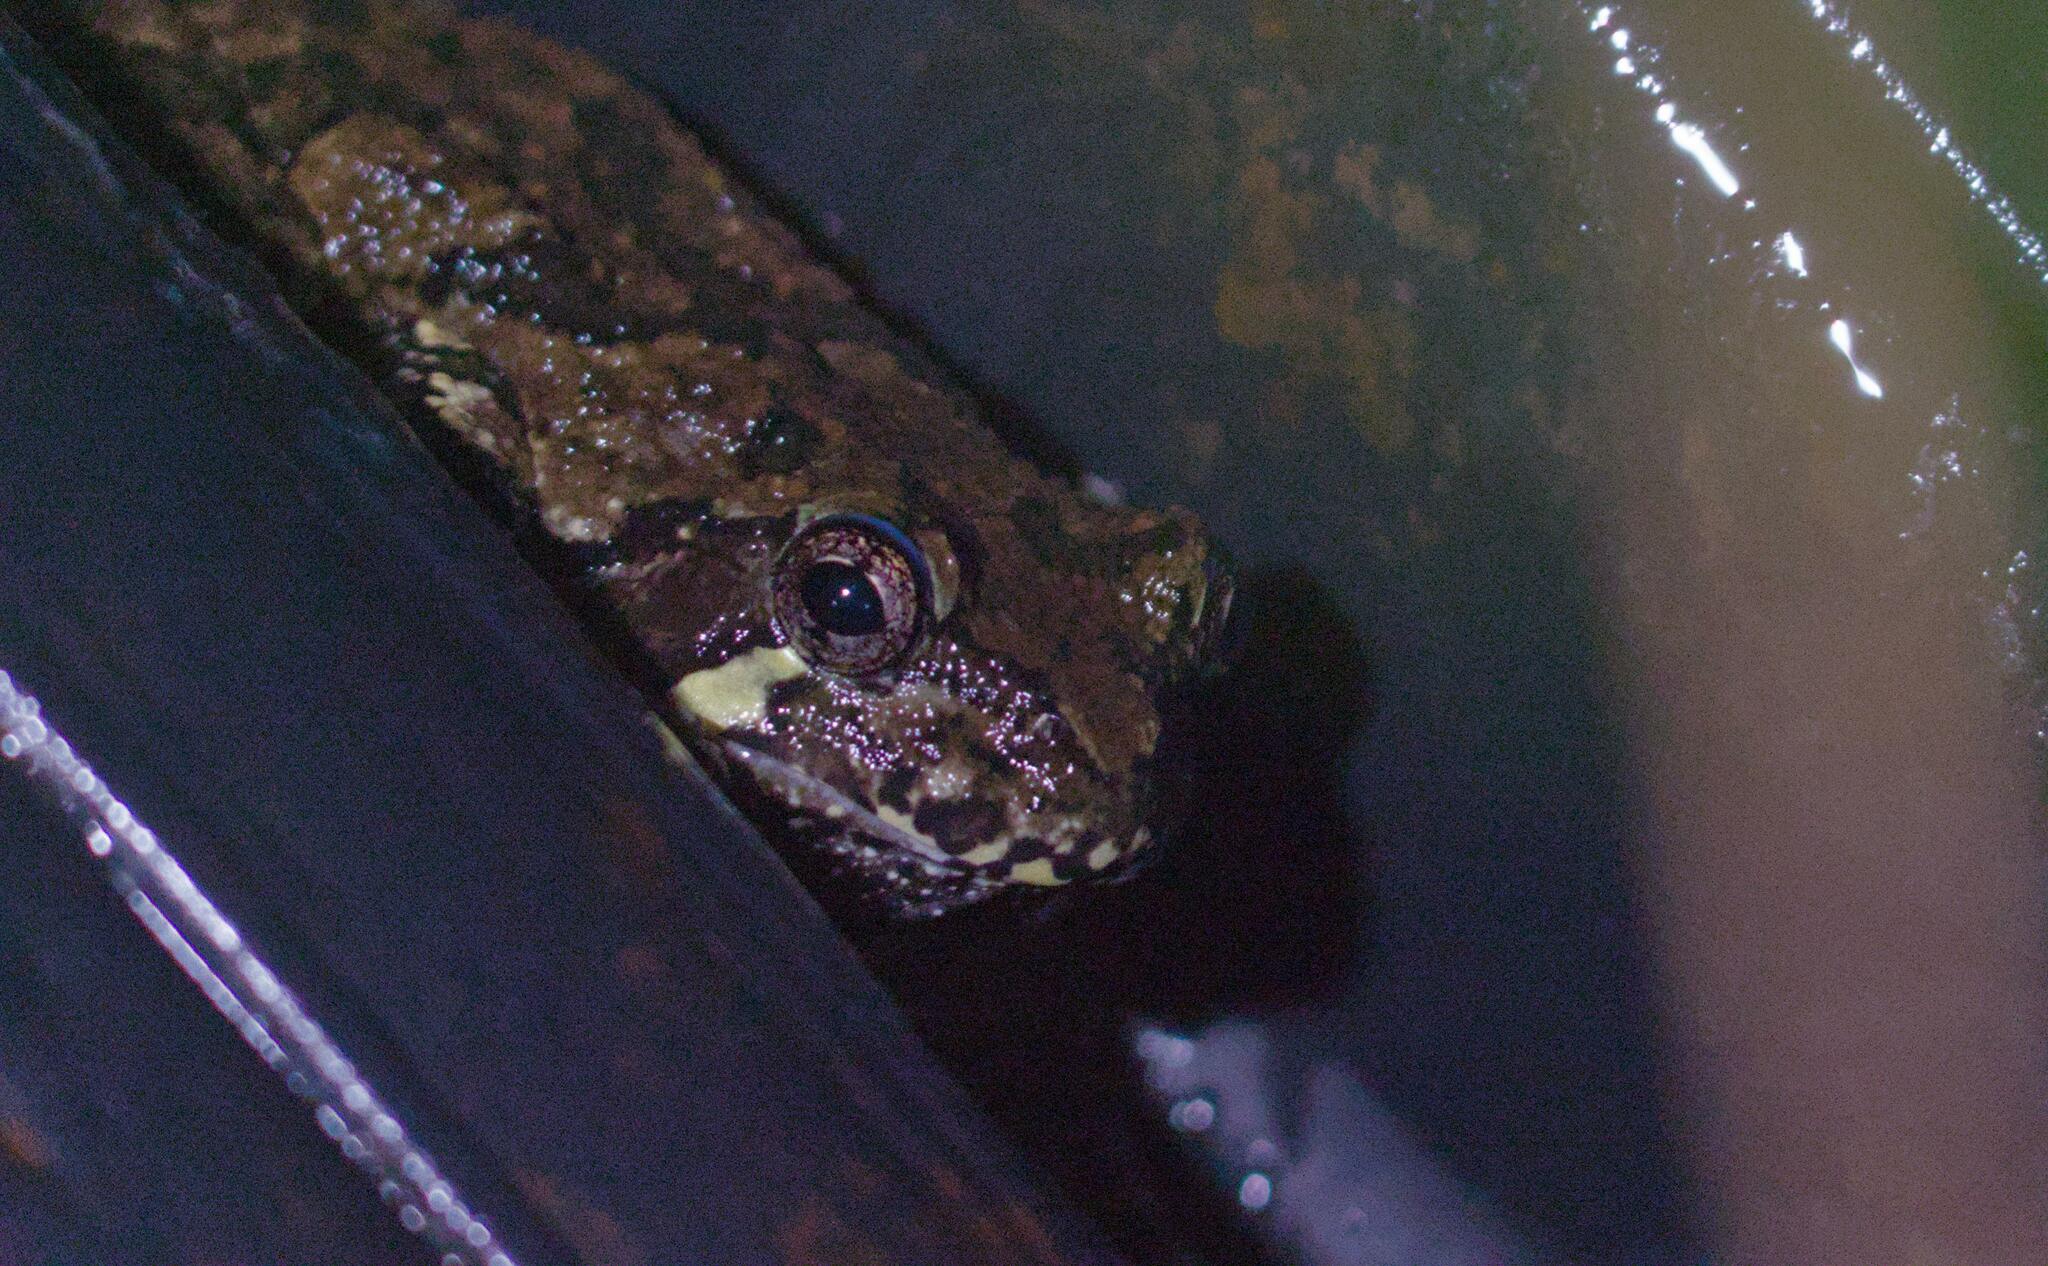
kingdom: Animalia
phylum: Chordata
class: Amphibia
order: Anura
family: Hylidae
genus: Dryophytes
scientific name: Dryophytes versicolor
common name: Gray treefrog
